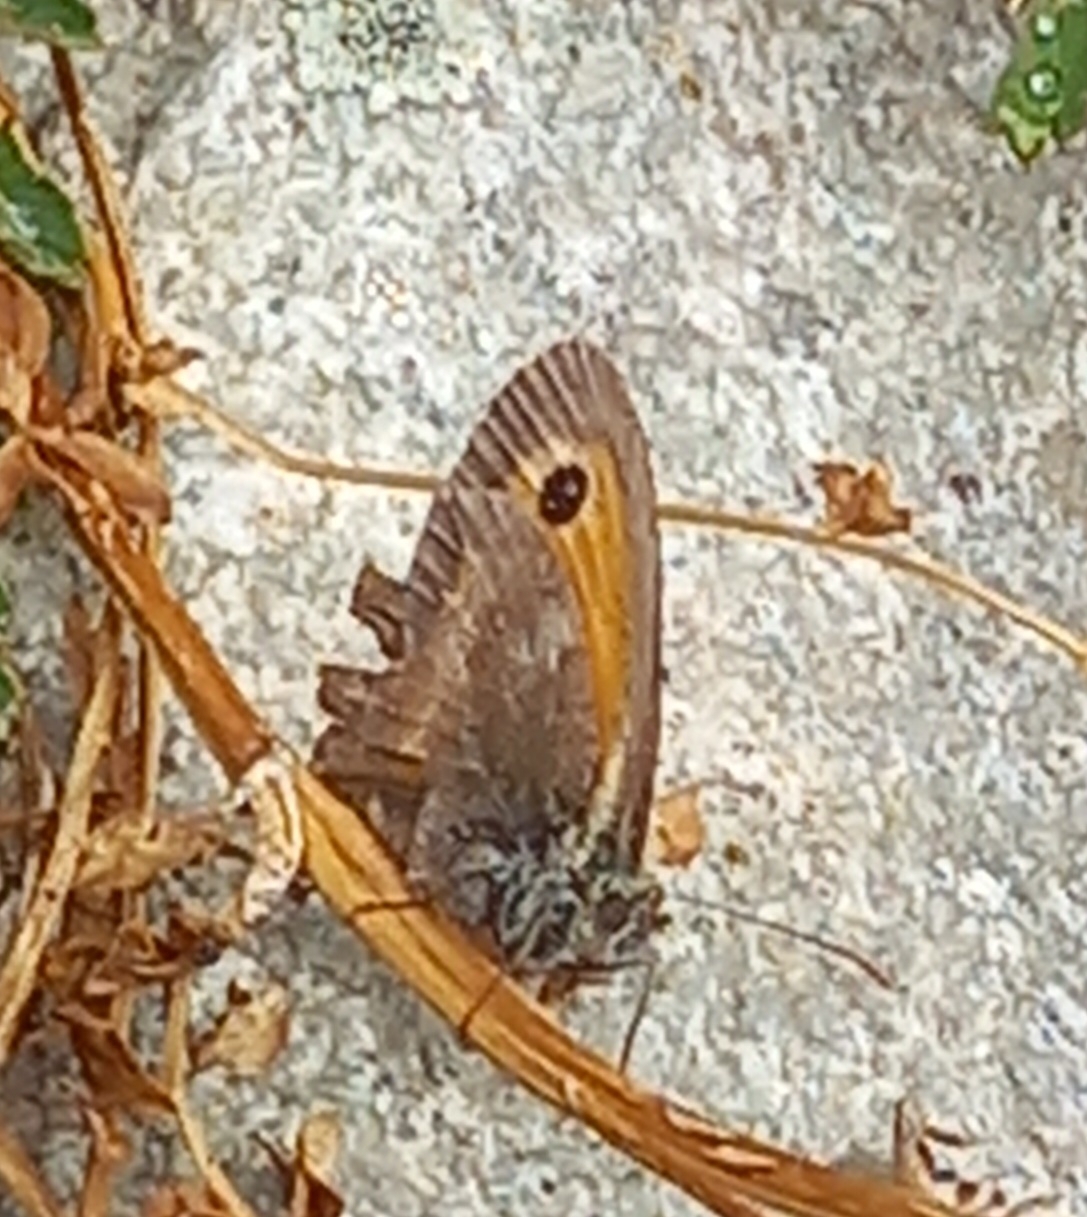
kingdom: Animalia
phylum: Arthropoda
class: Insecta
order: Lepidoptera
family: Nymphalidae
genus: Pyronia
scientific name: Pyronia tithonus
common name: Gatekeeper
